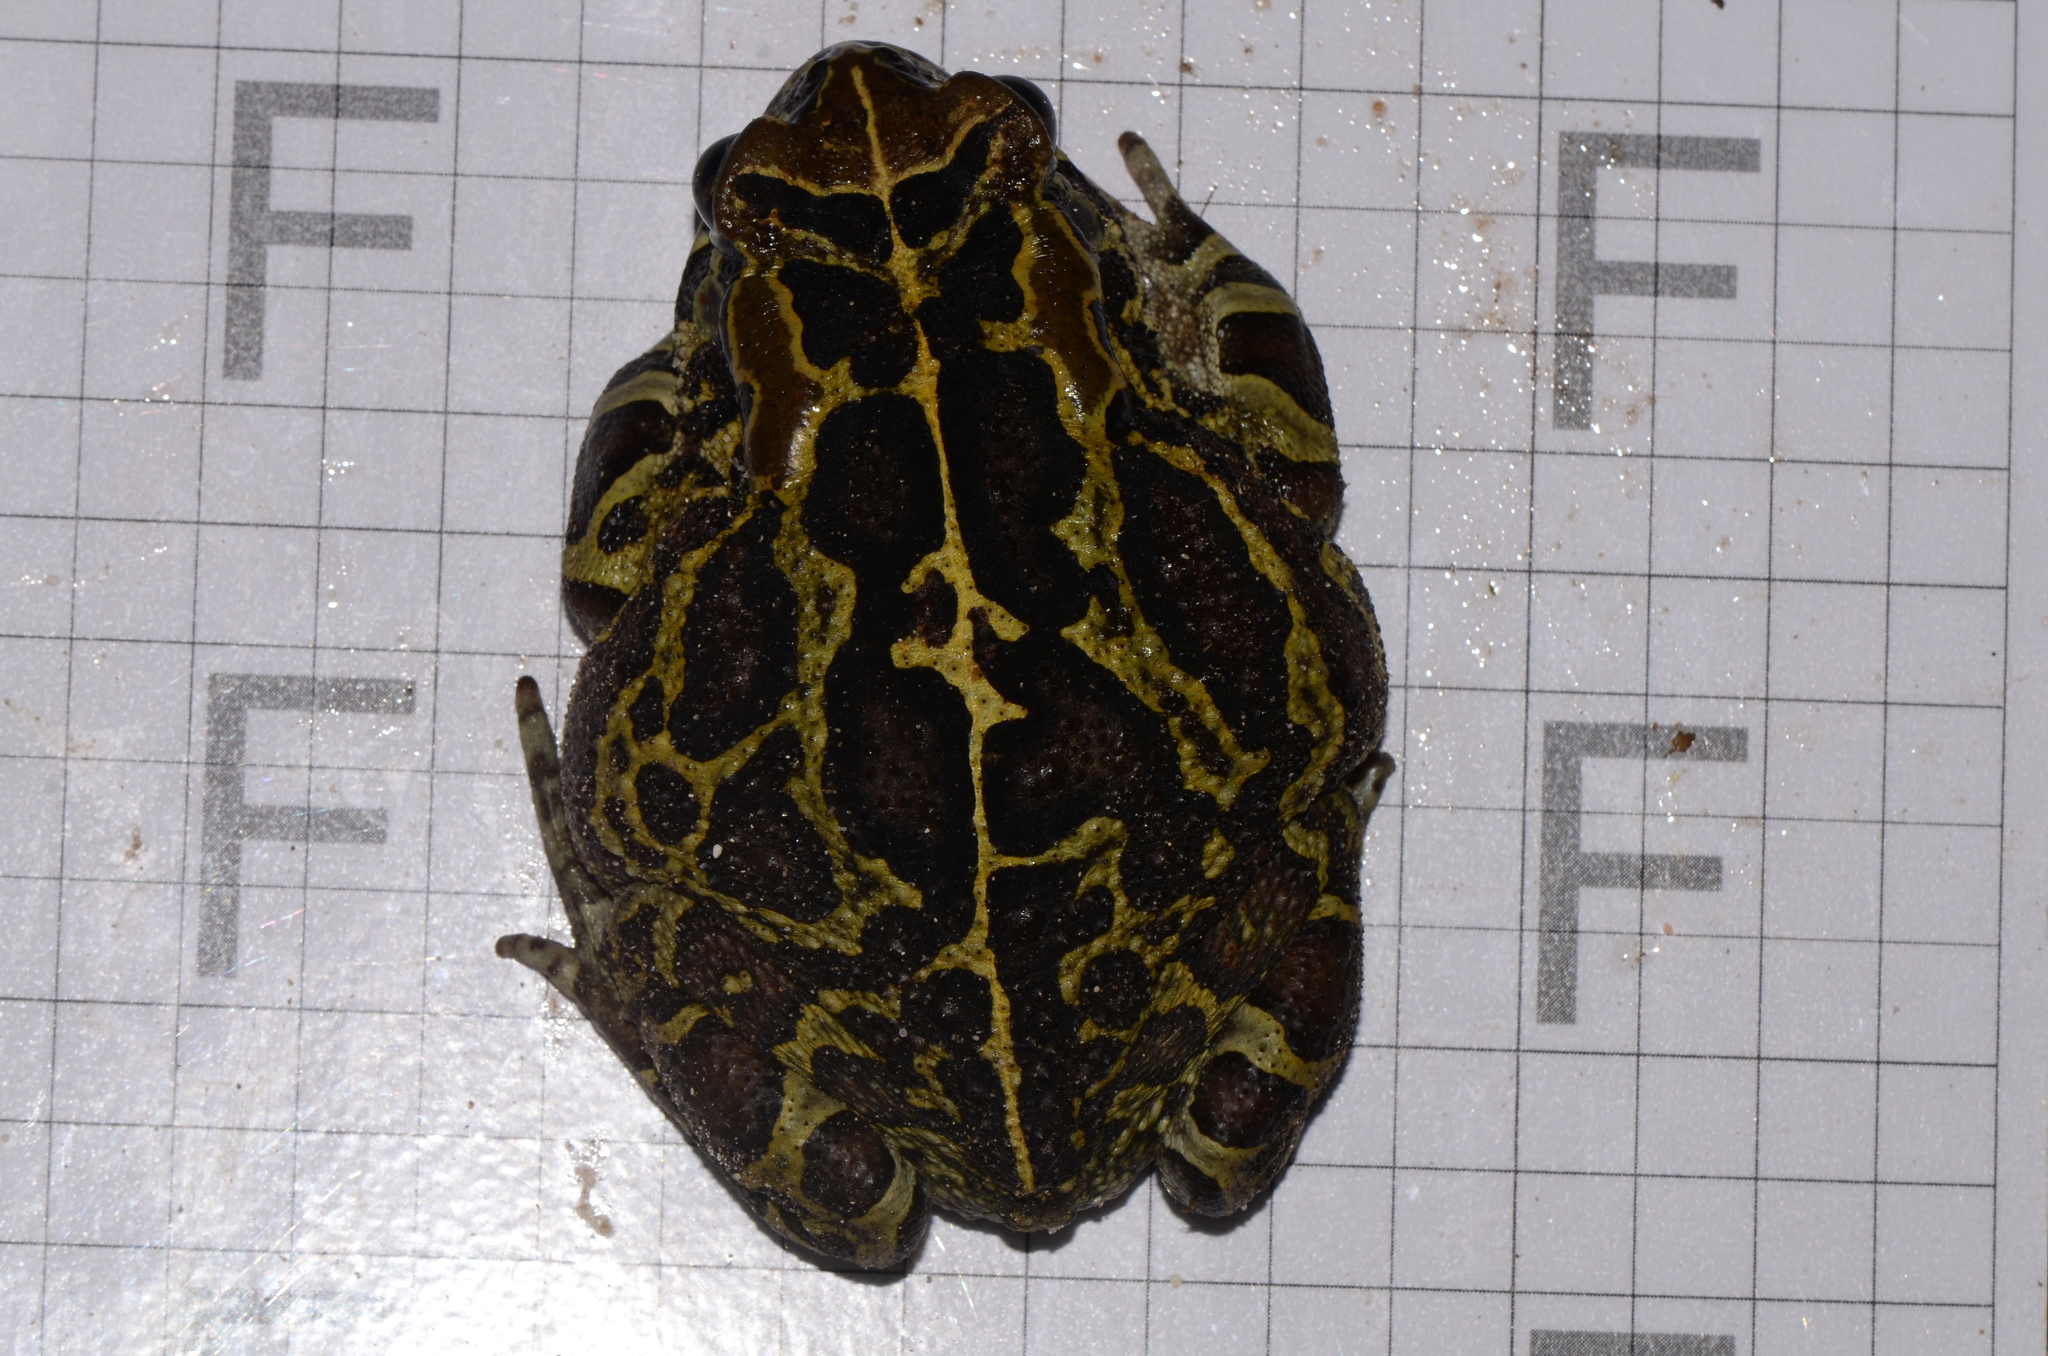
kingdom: Animalia
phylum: Chordata
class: Amphibia
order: Anura
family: Bufonidae
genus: Sclerophrys
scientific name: Sclerophrys pantherina
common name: Panther toad
